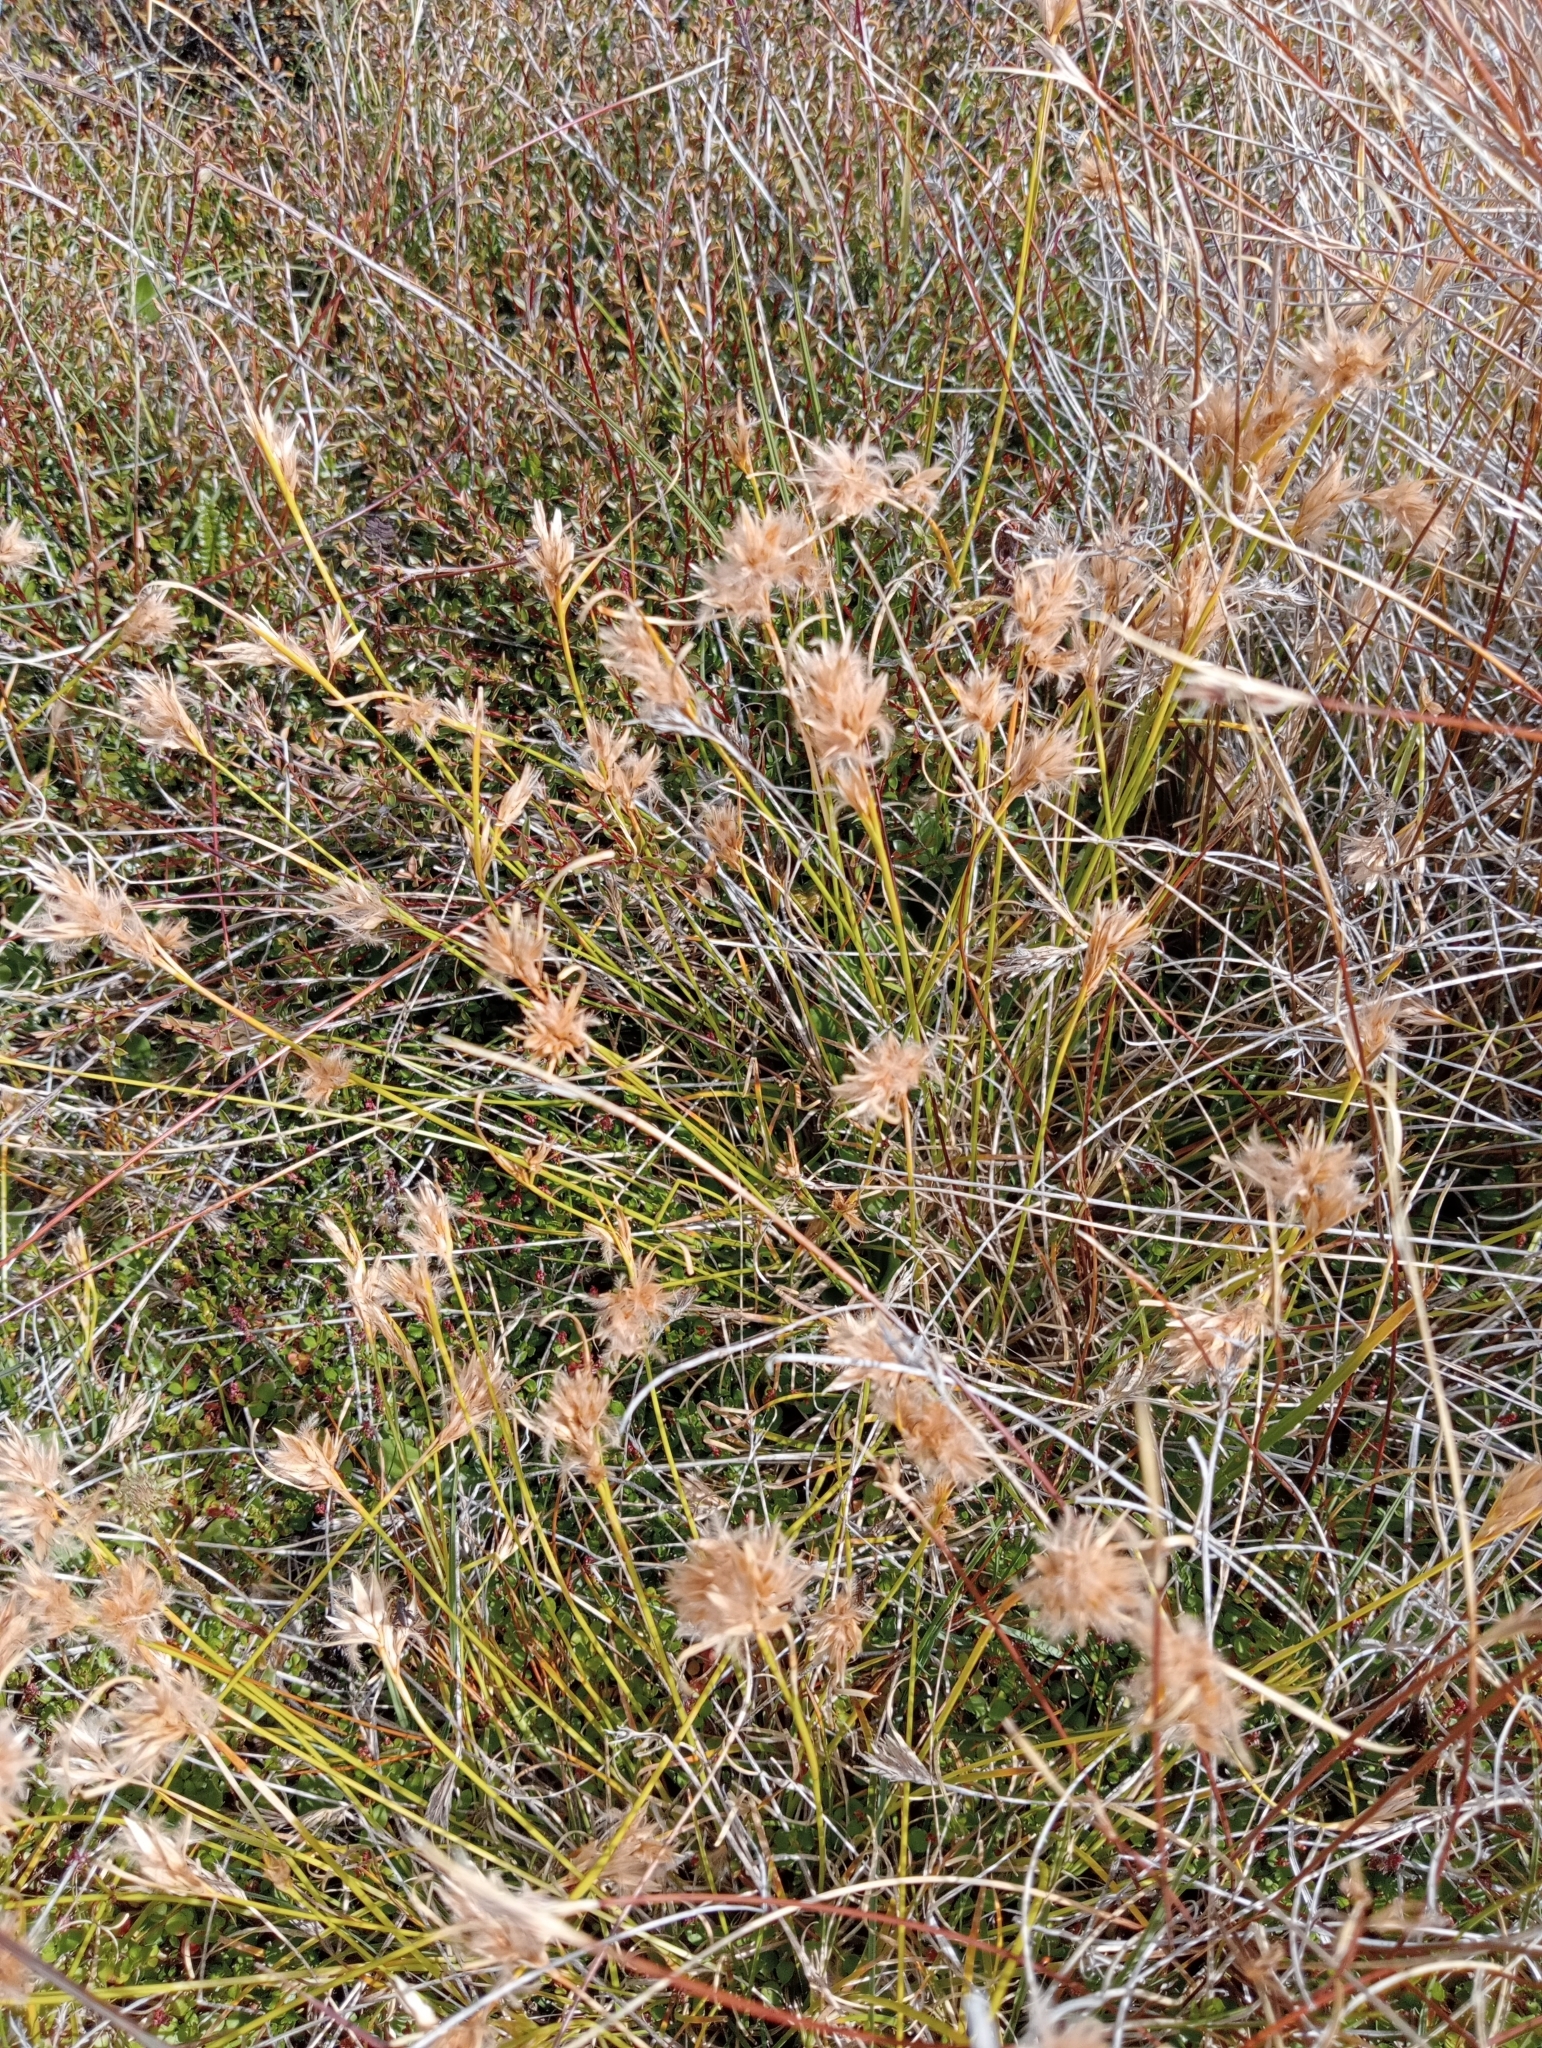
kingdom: Plantae
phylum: Tracheophyta
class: Liliopsida
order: Poales
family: Cyperaceae
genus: Carpha
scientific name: Carpha alpina
